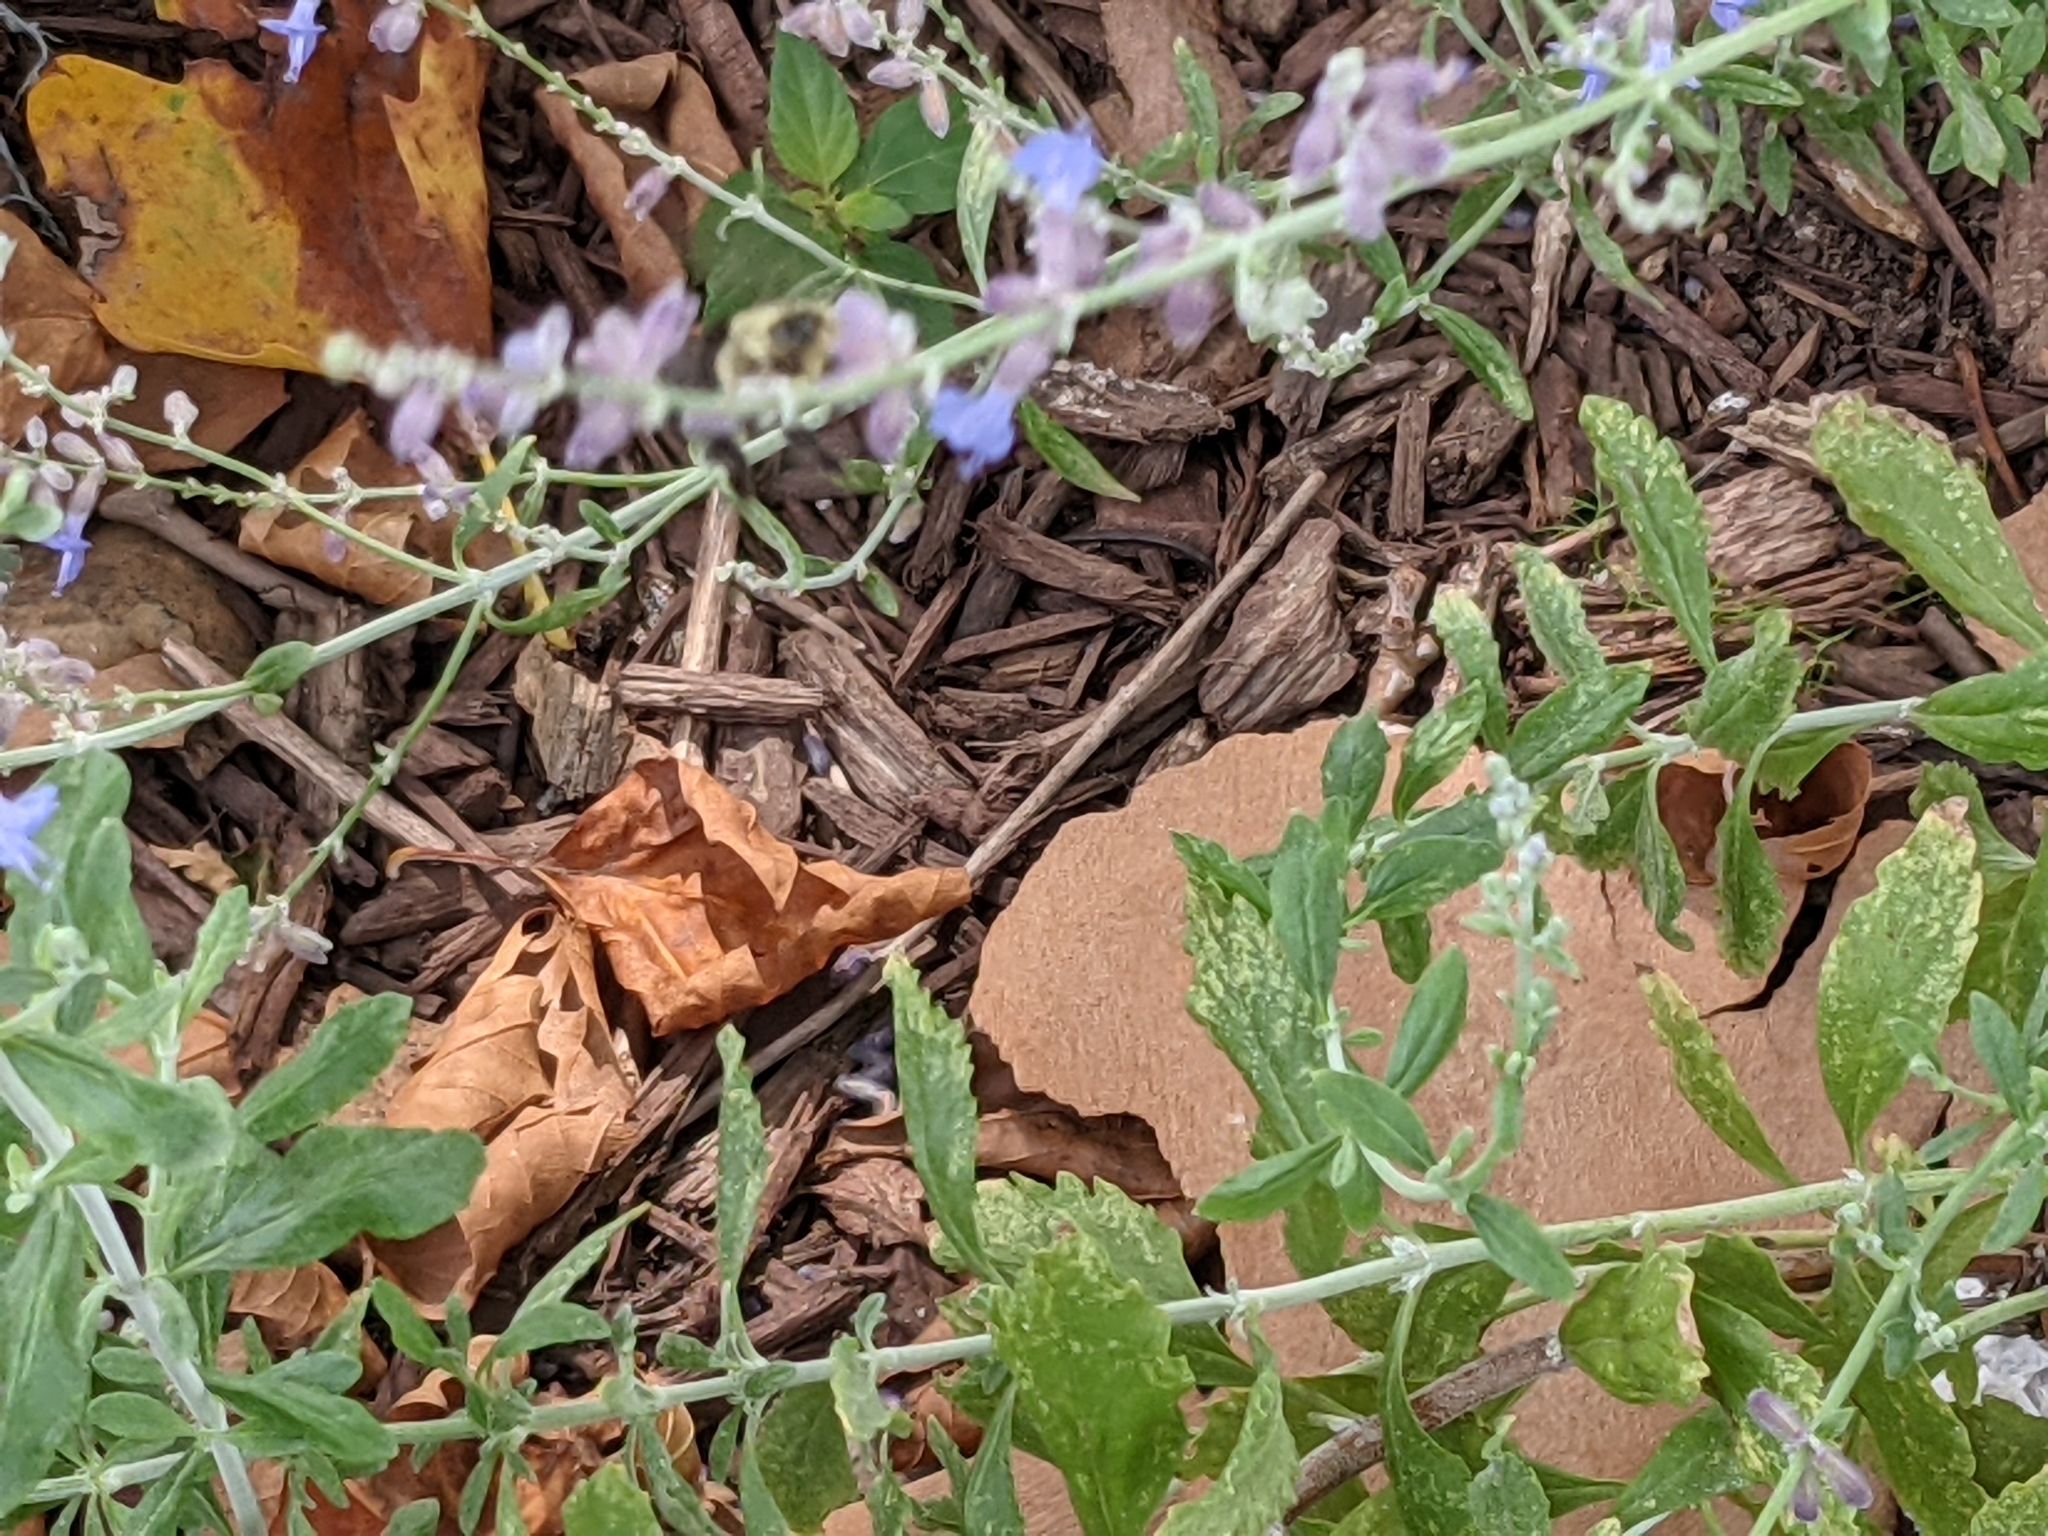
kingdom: Animalia
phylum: Arthropoda
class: Insecta
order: Hymenoptera
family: Apidae
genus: Bombus
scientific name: Bombus impatiens
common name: Common eastern bumble bee
